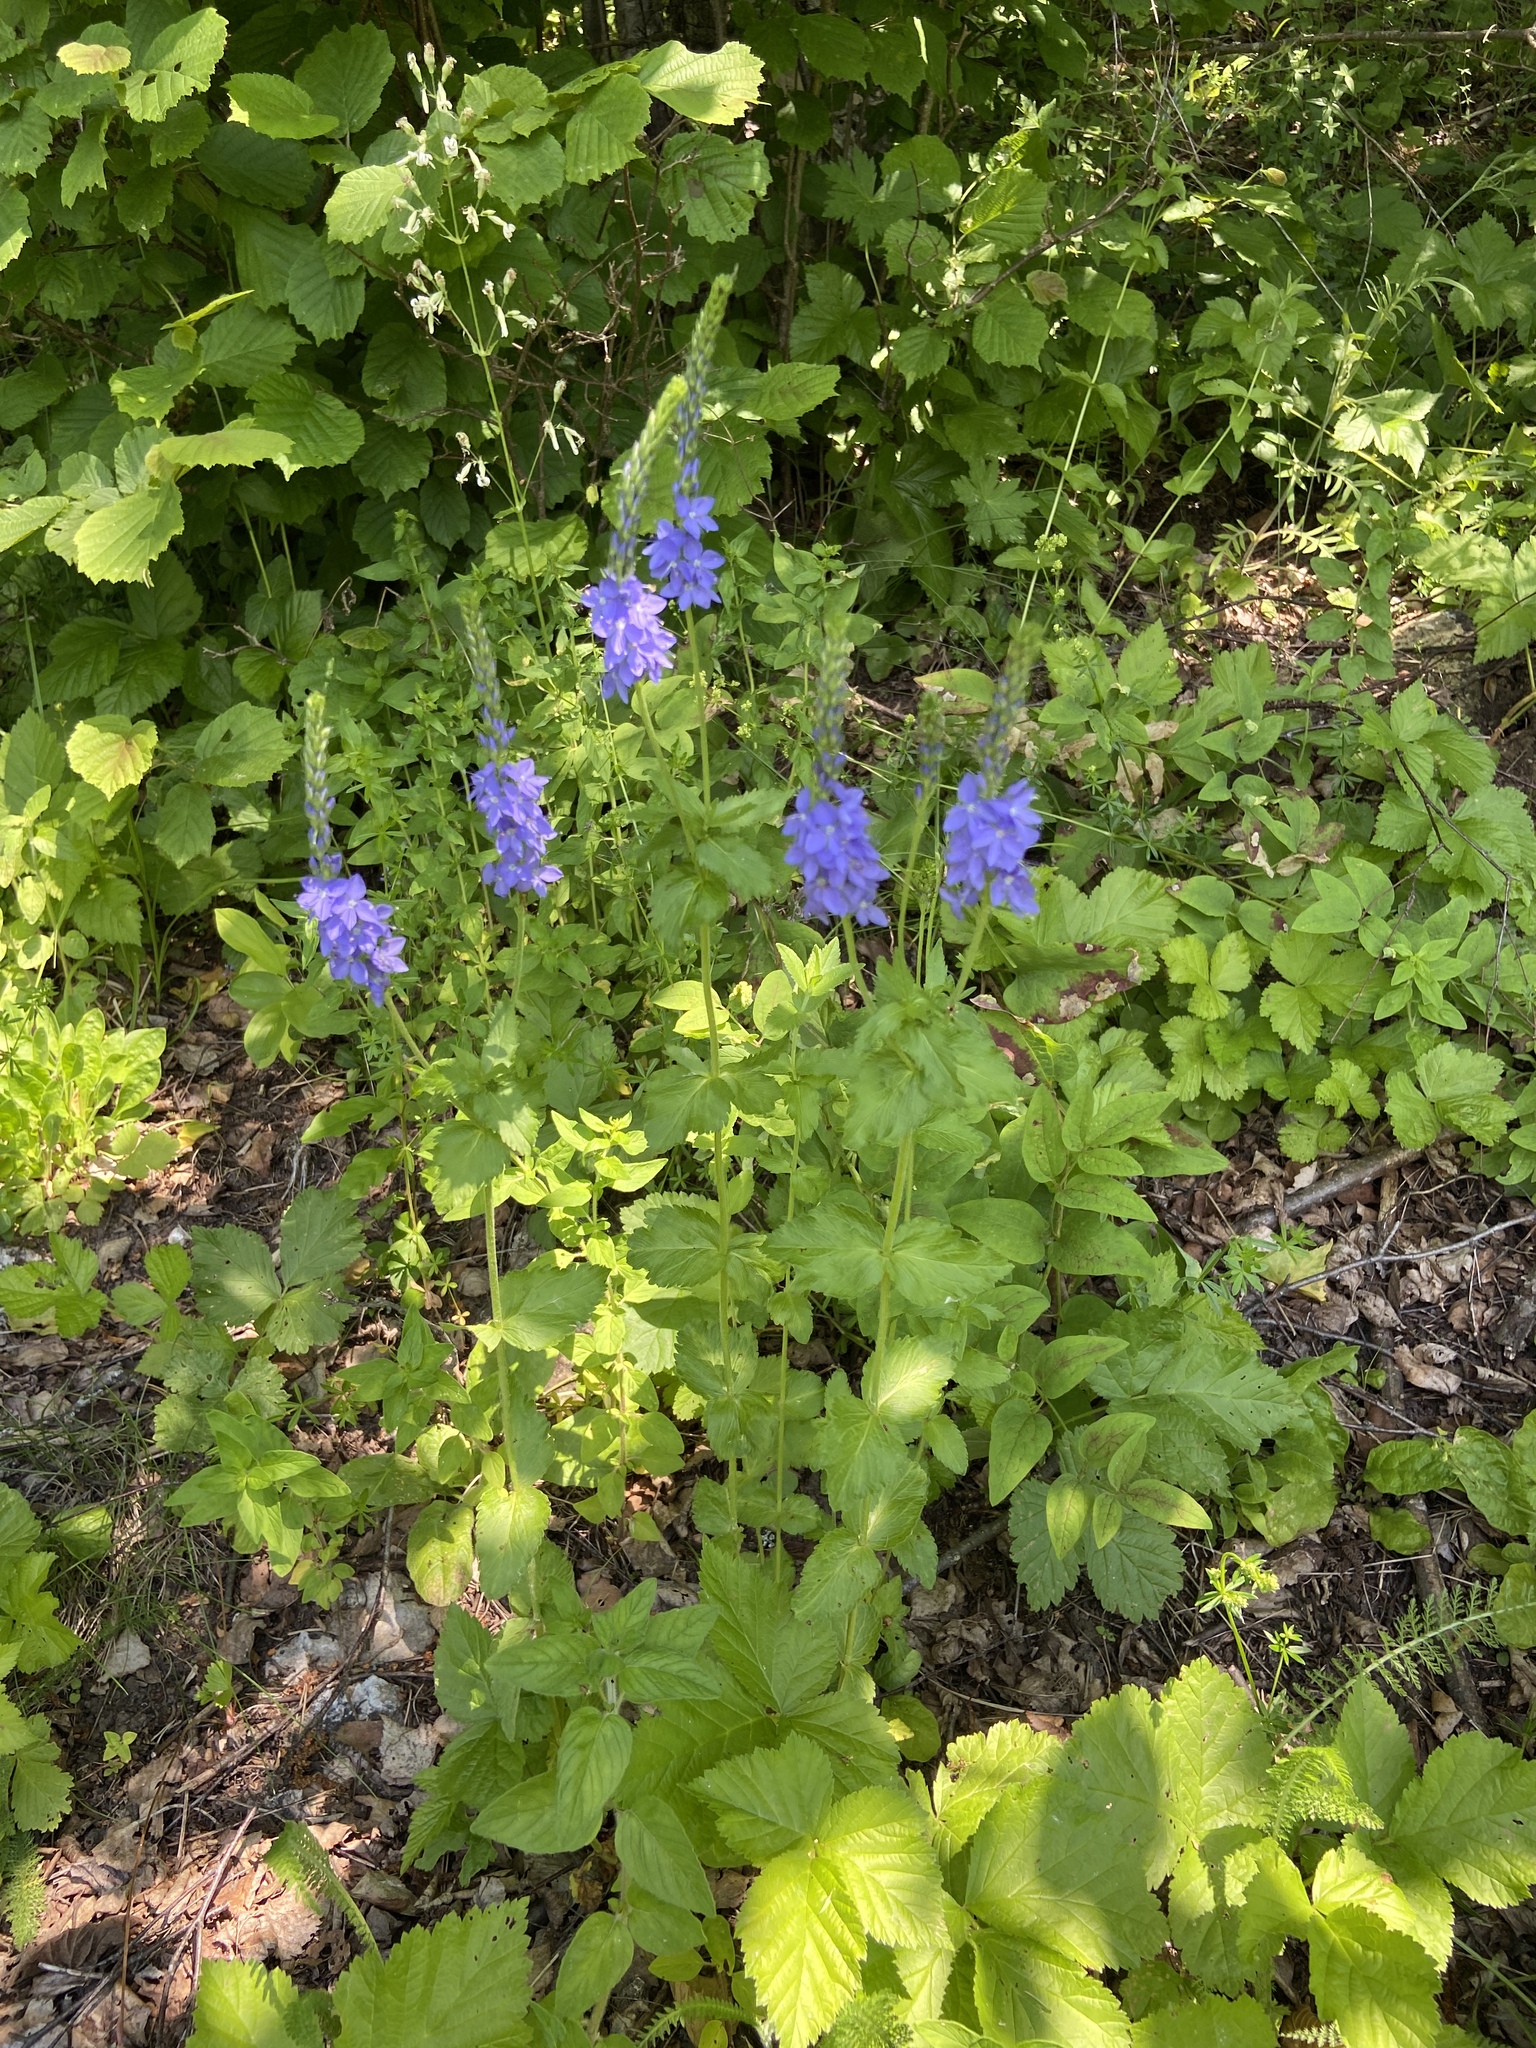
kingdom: Plantae
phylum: Tracheophyta
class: Magnoliopsida
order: Lamiales
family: Plantaginaceae
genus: Veronica
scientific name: Veronica teucrium
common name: Large speedwell
